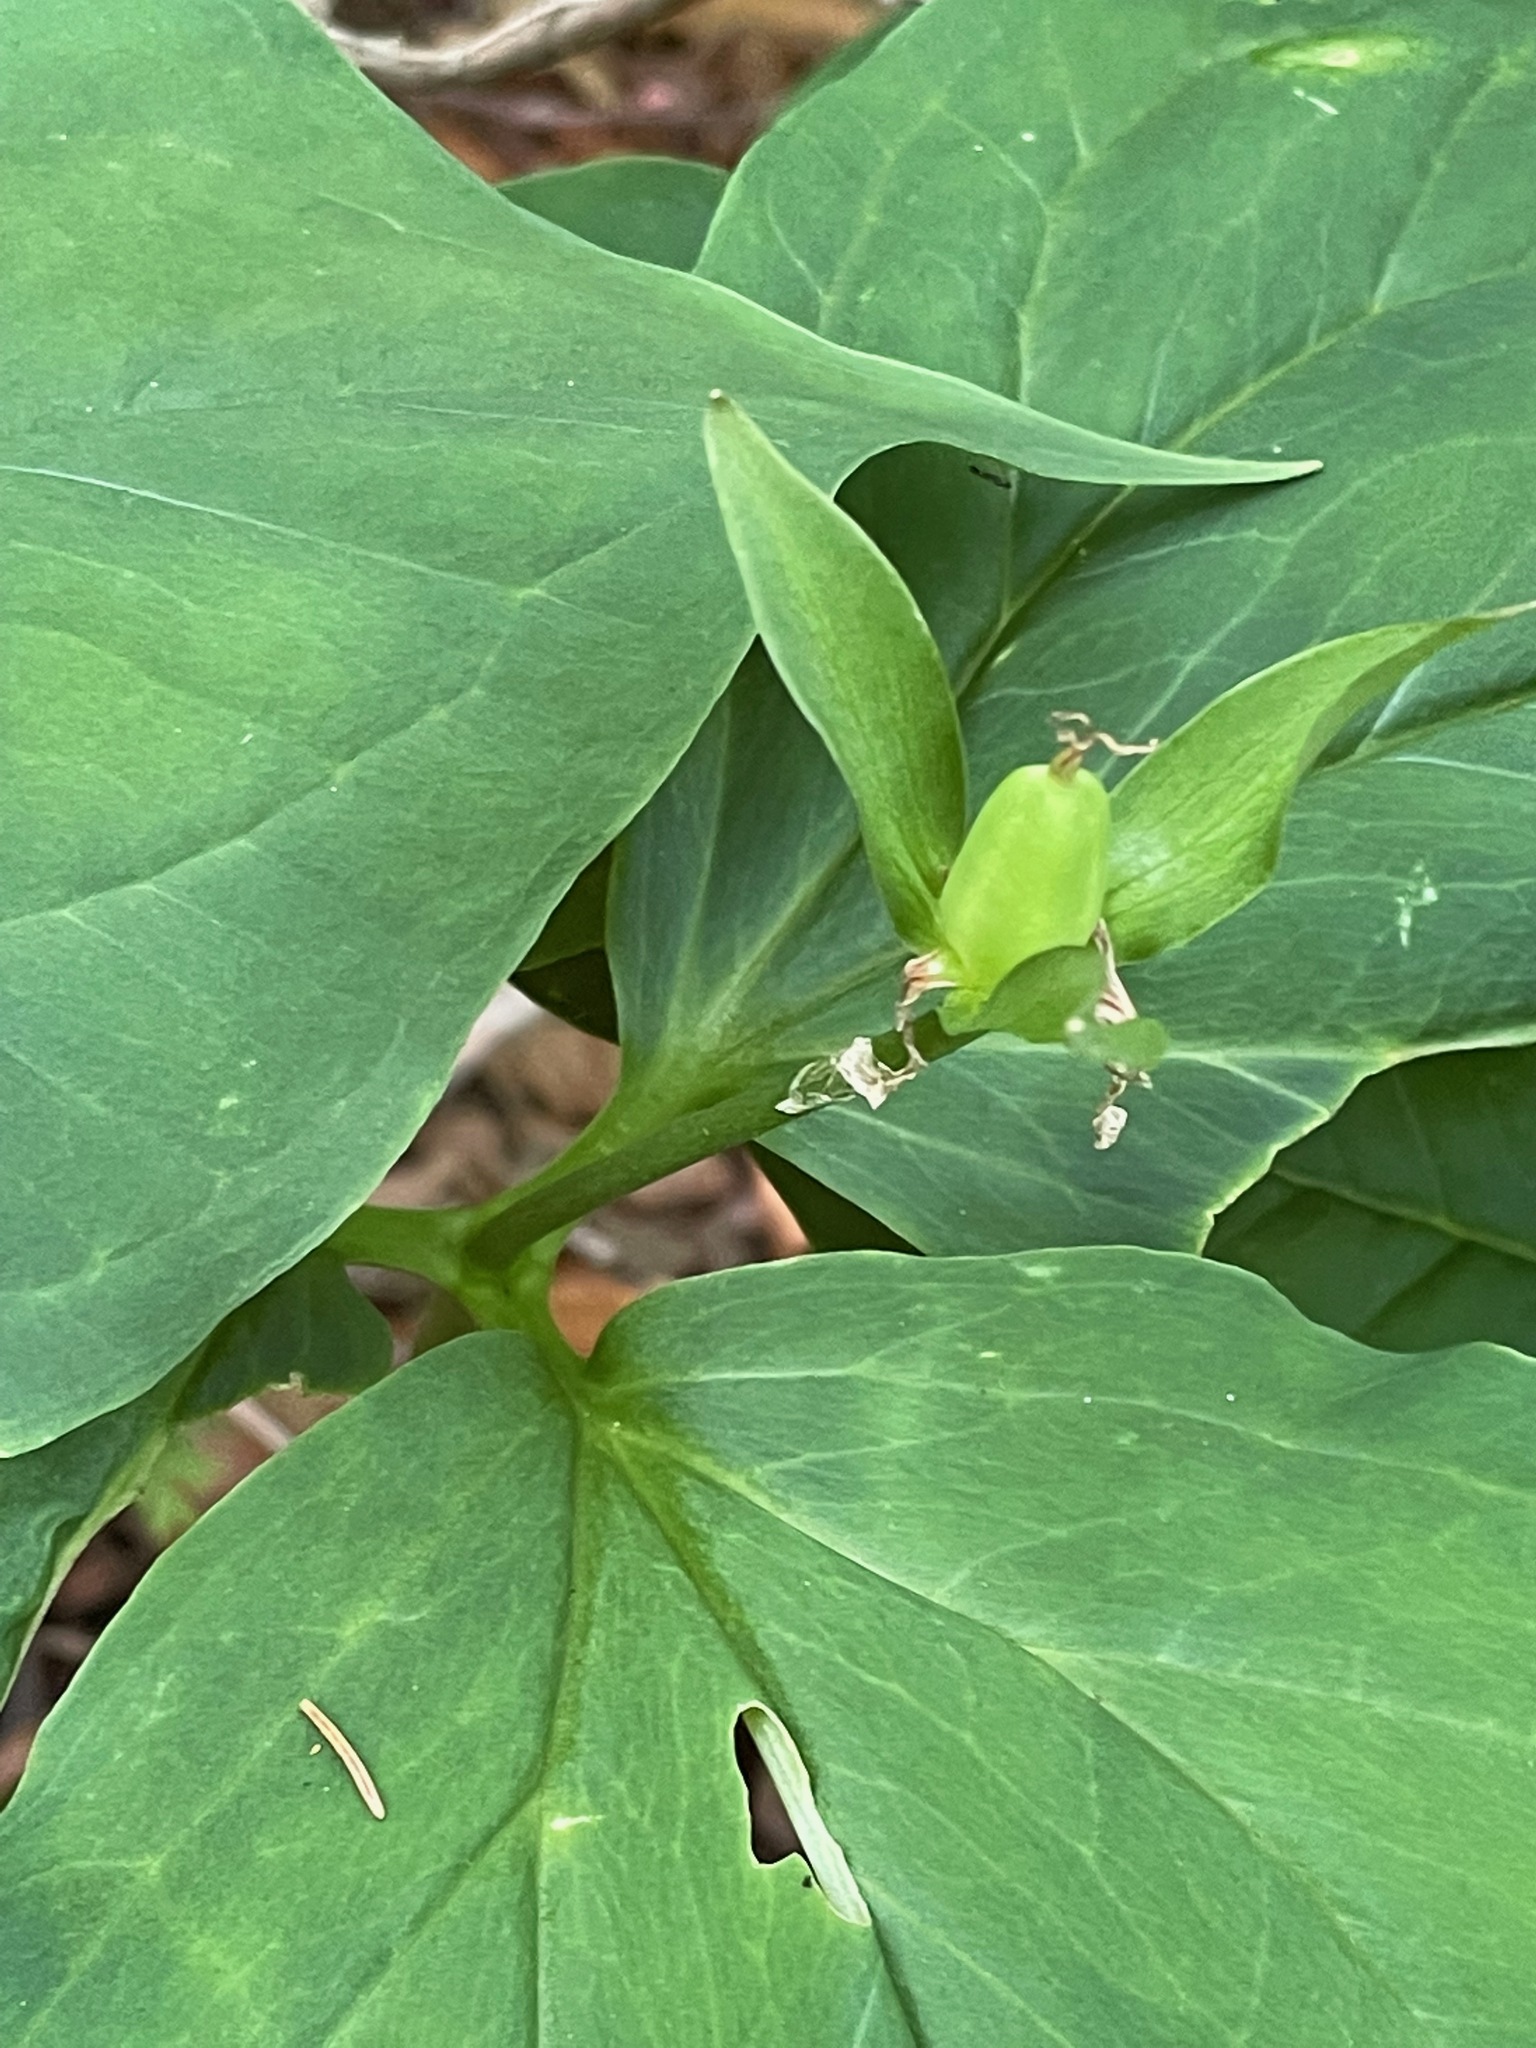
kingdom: Plantae
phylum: Tracheophyta
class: Liliopsida
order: Liliales
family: Melanthiaceae
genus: Trillium
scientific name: Trillium undulatum
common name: Paint trillium
